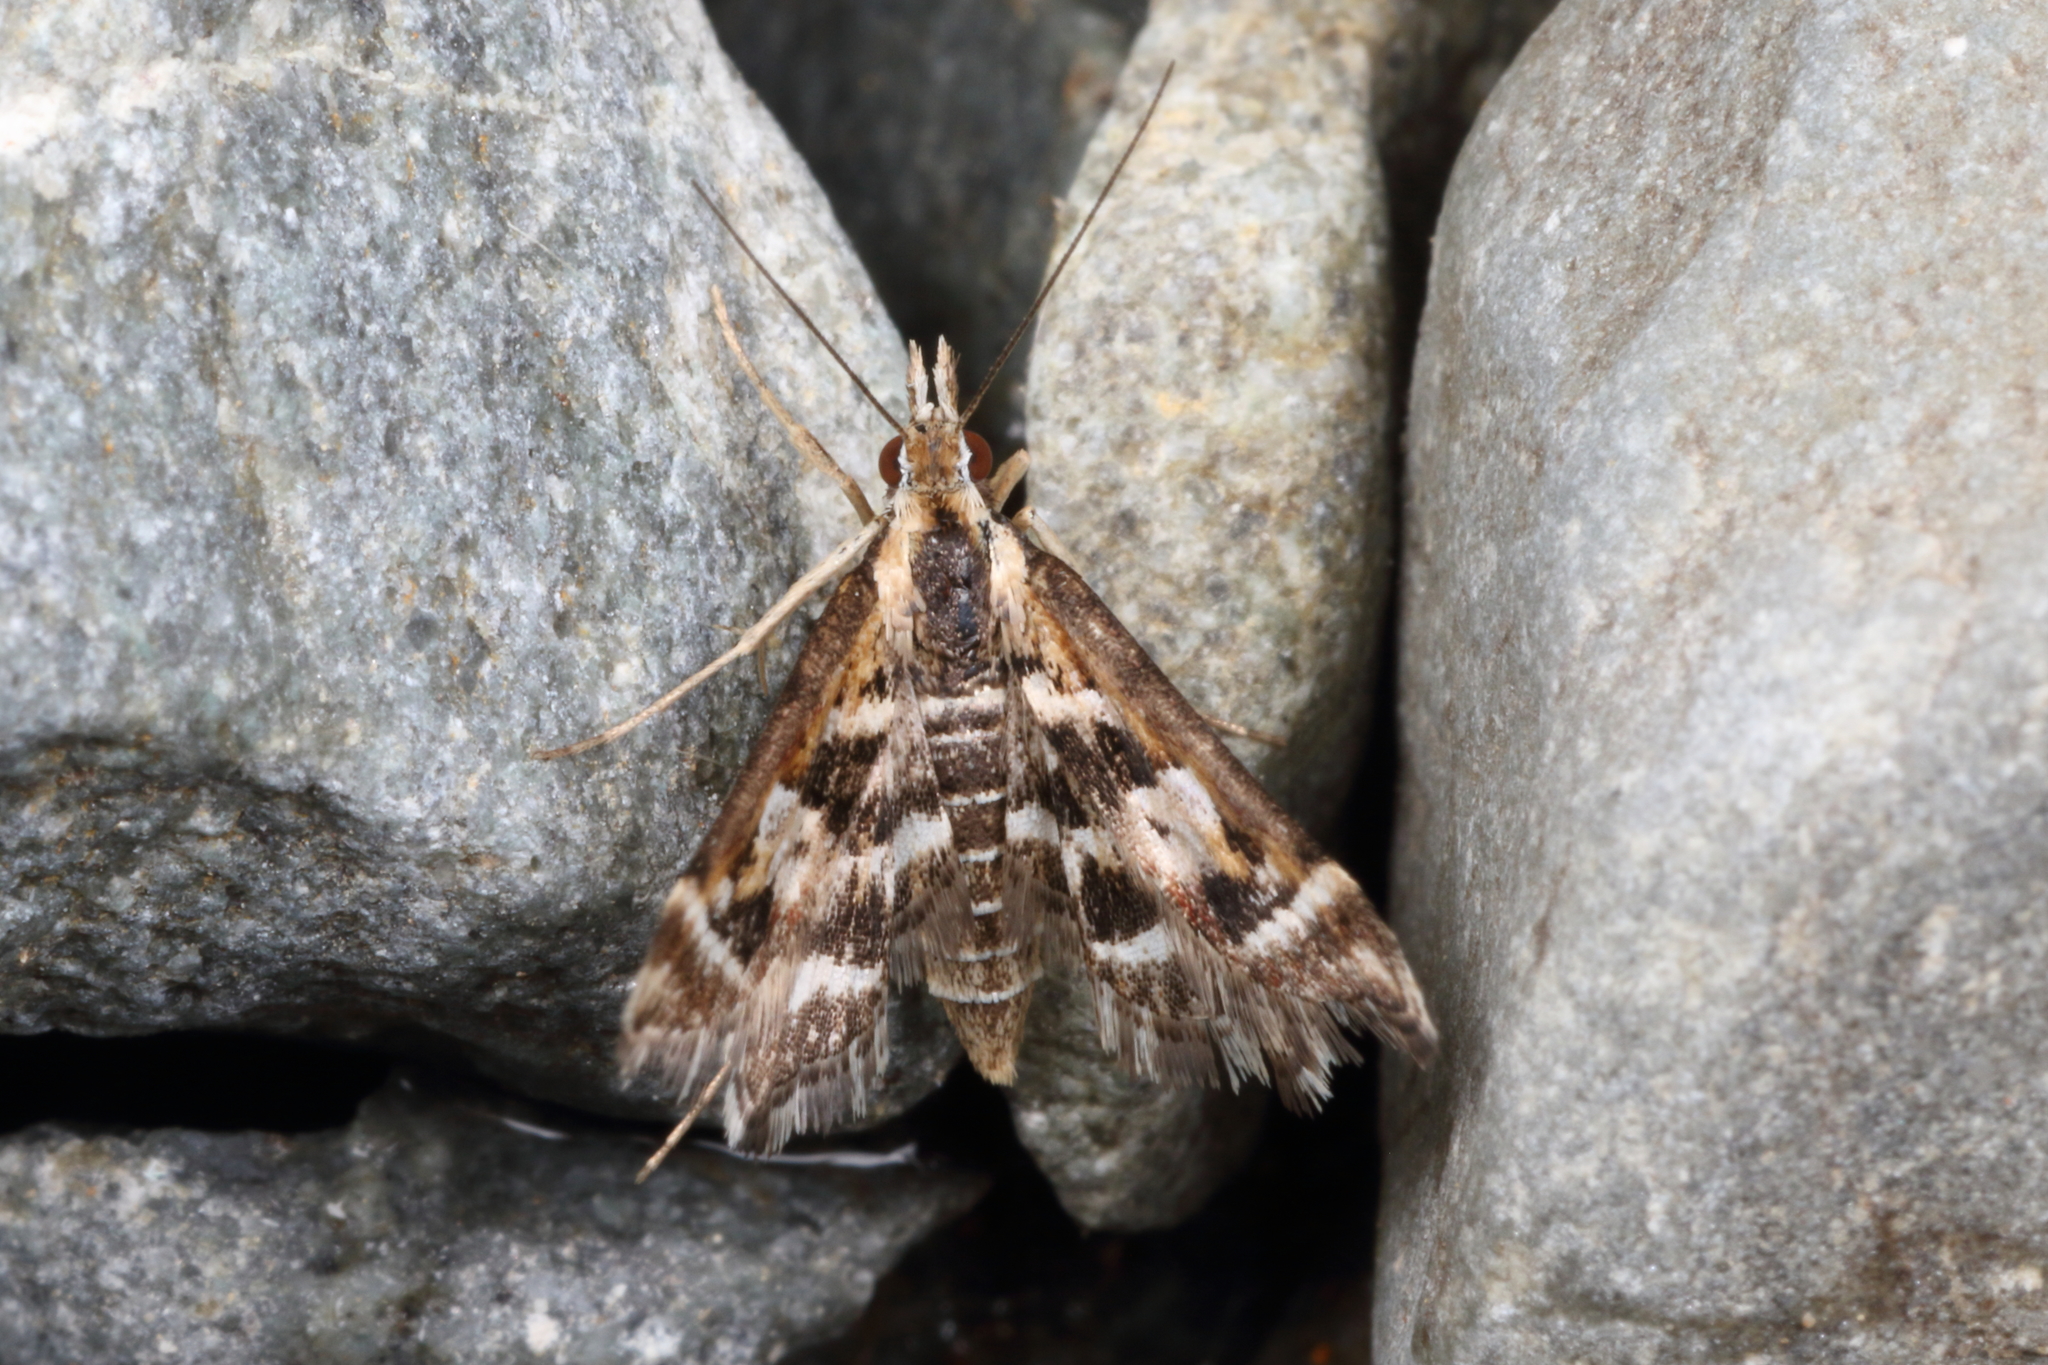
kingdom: Animalia
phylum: Arthropoda
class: Insecta
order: Lepidoptera
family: Crambidae
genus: Diasemia
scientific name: Diasemia grammalis
